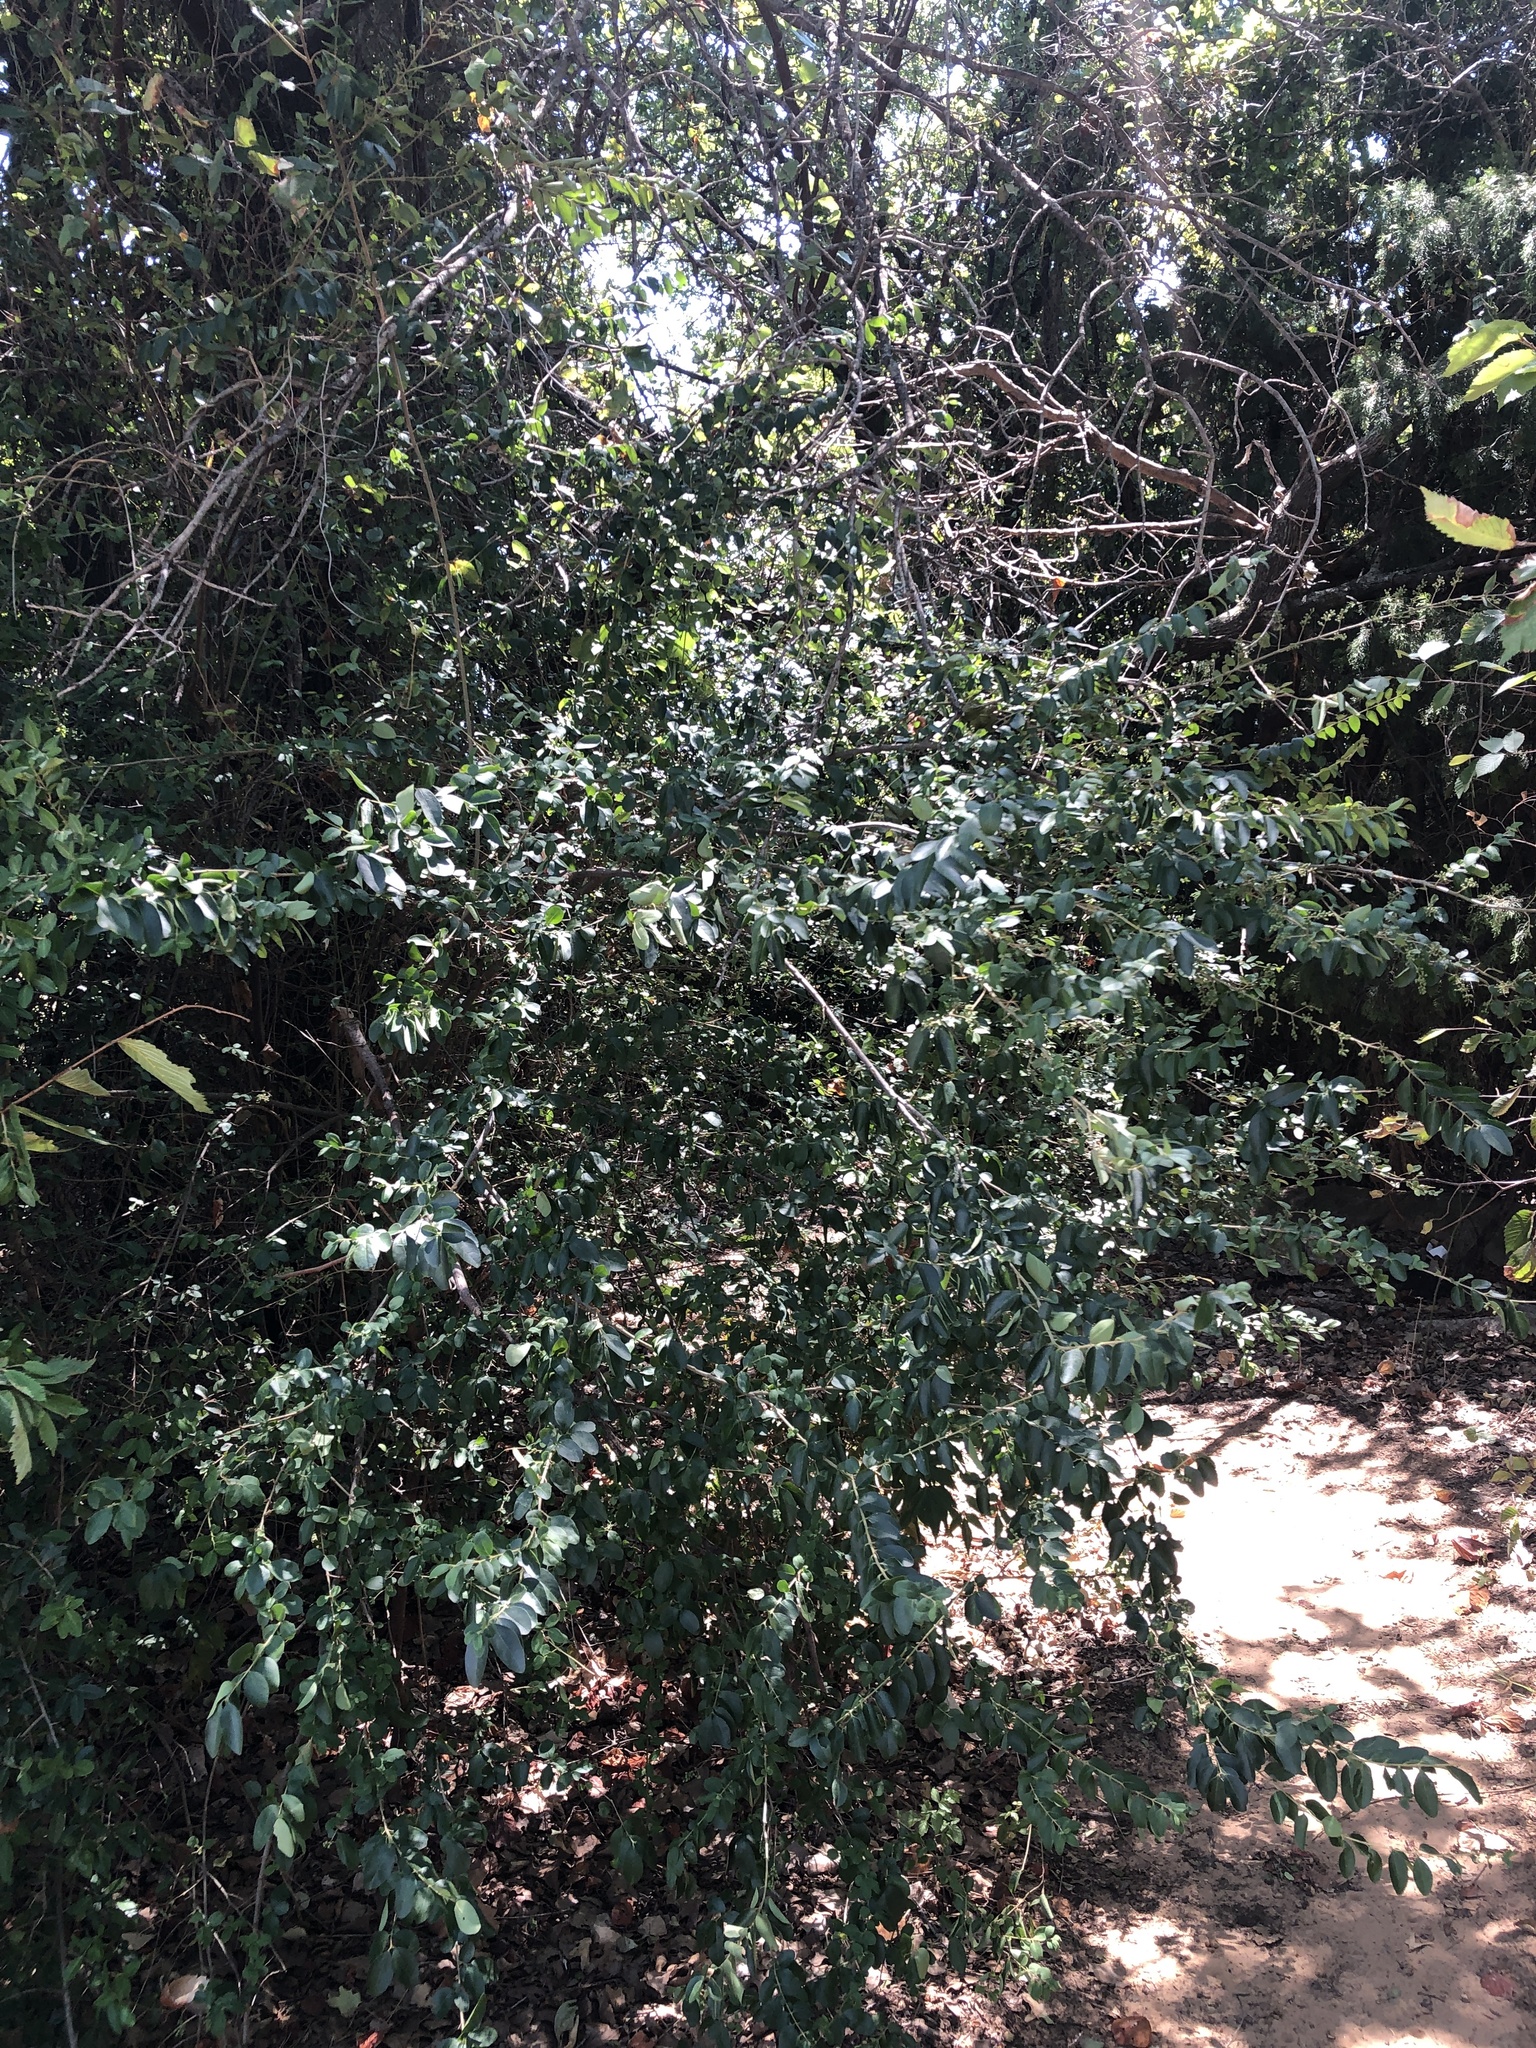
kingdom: Plantae
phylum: Tracheophyta
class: Magnoliopsida
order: Lamiales
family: Oleaceae
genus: Ligustrum
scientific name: Ligustrum sinense
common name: Chinese privet
